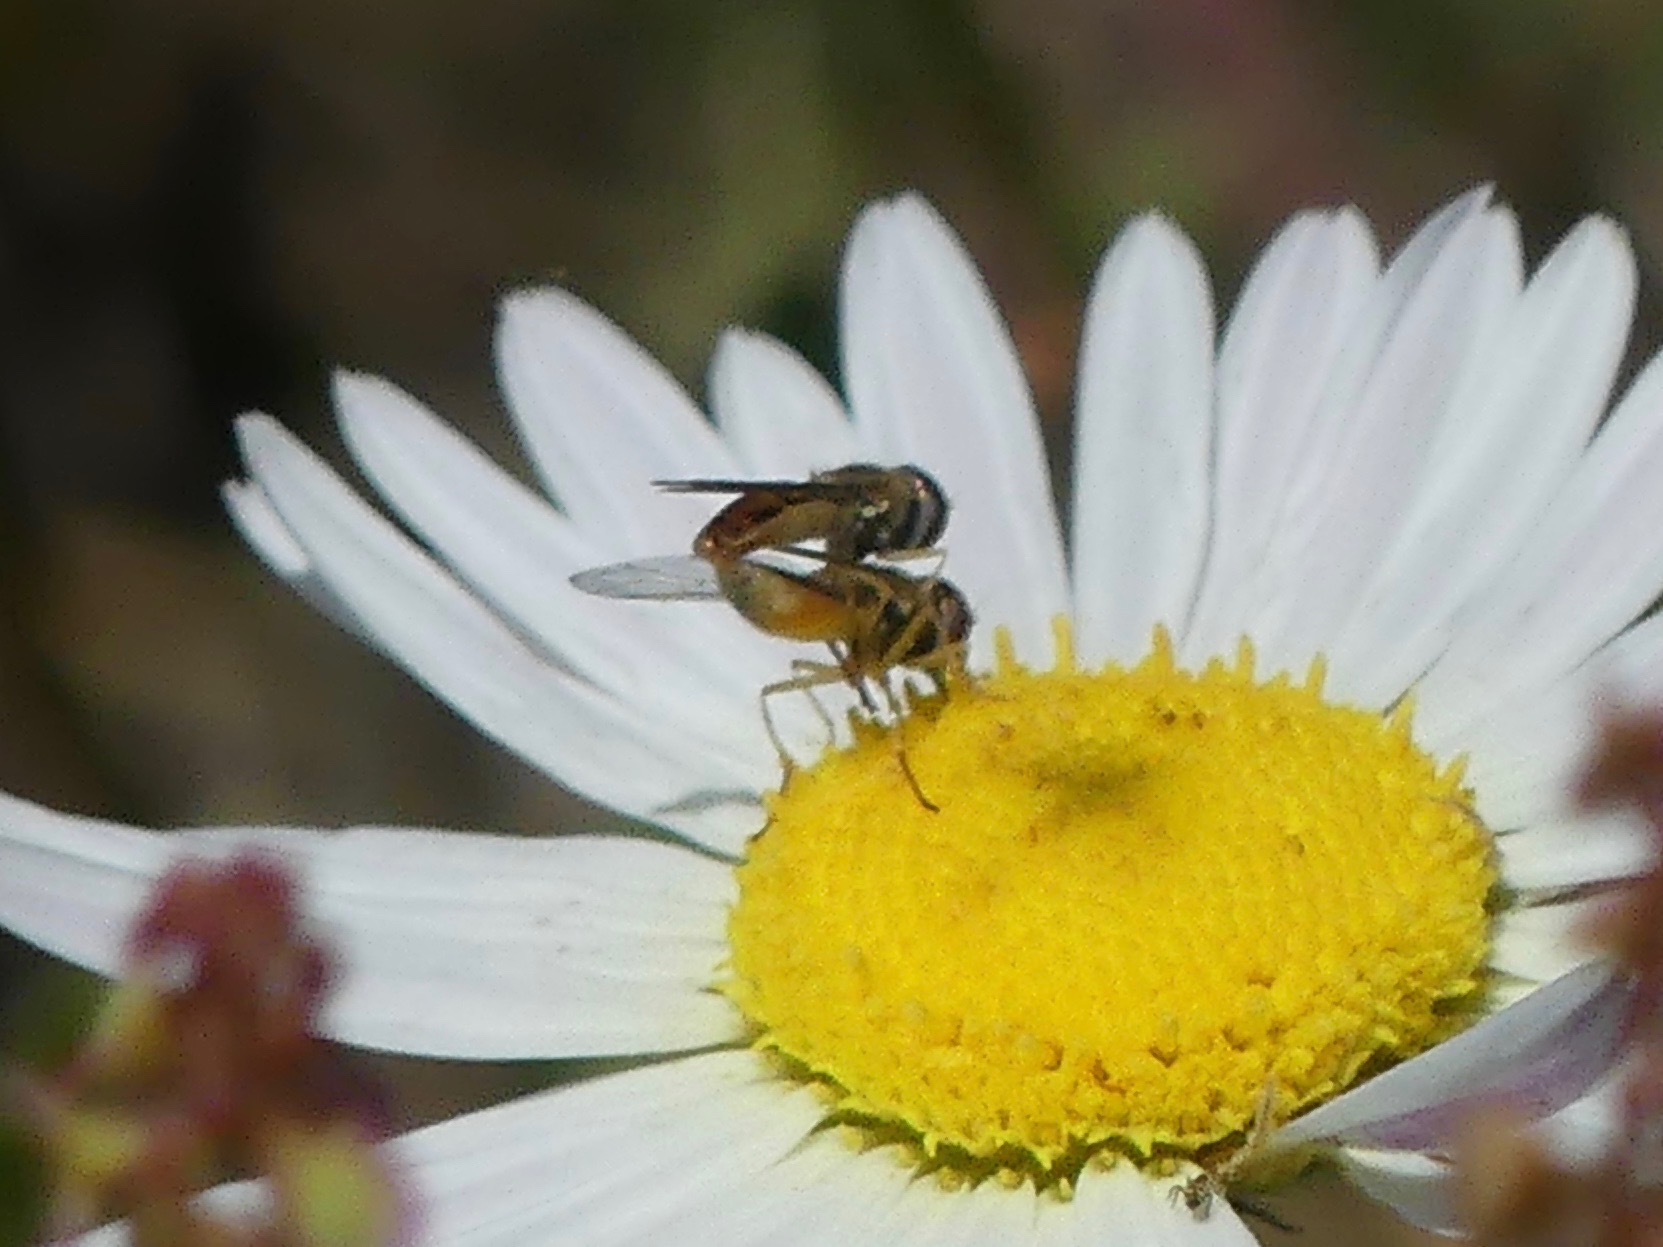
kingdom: Animalia
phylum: Arthropoda
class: Insecta
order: Diptera
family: Syrphidae
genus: Toxomerus
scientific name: Toxomerus
